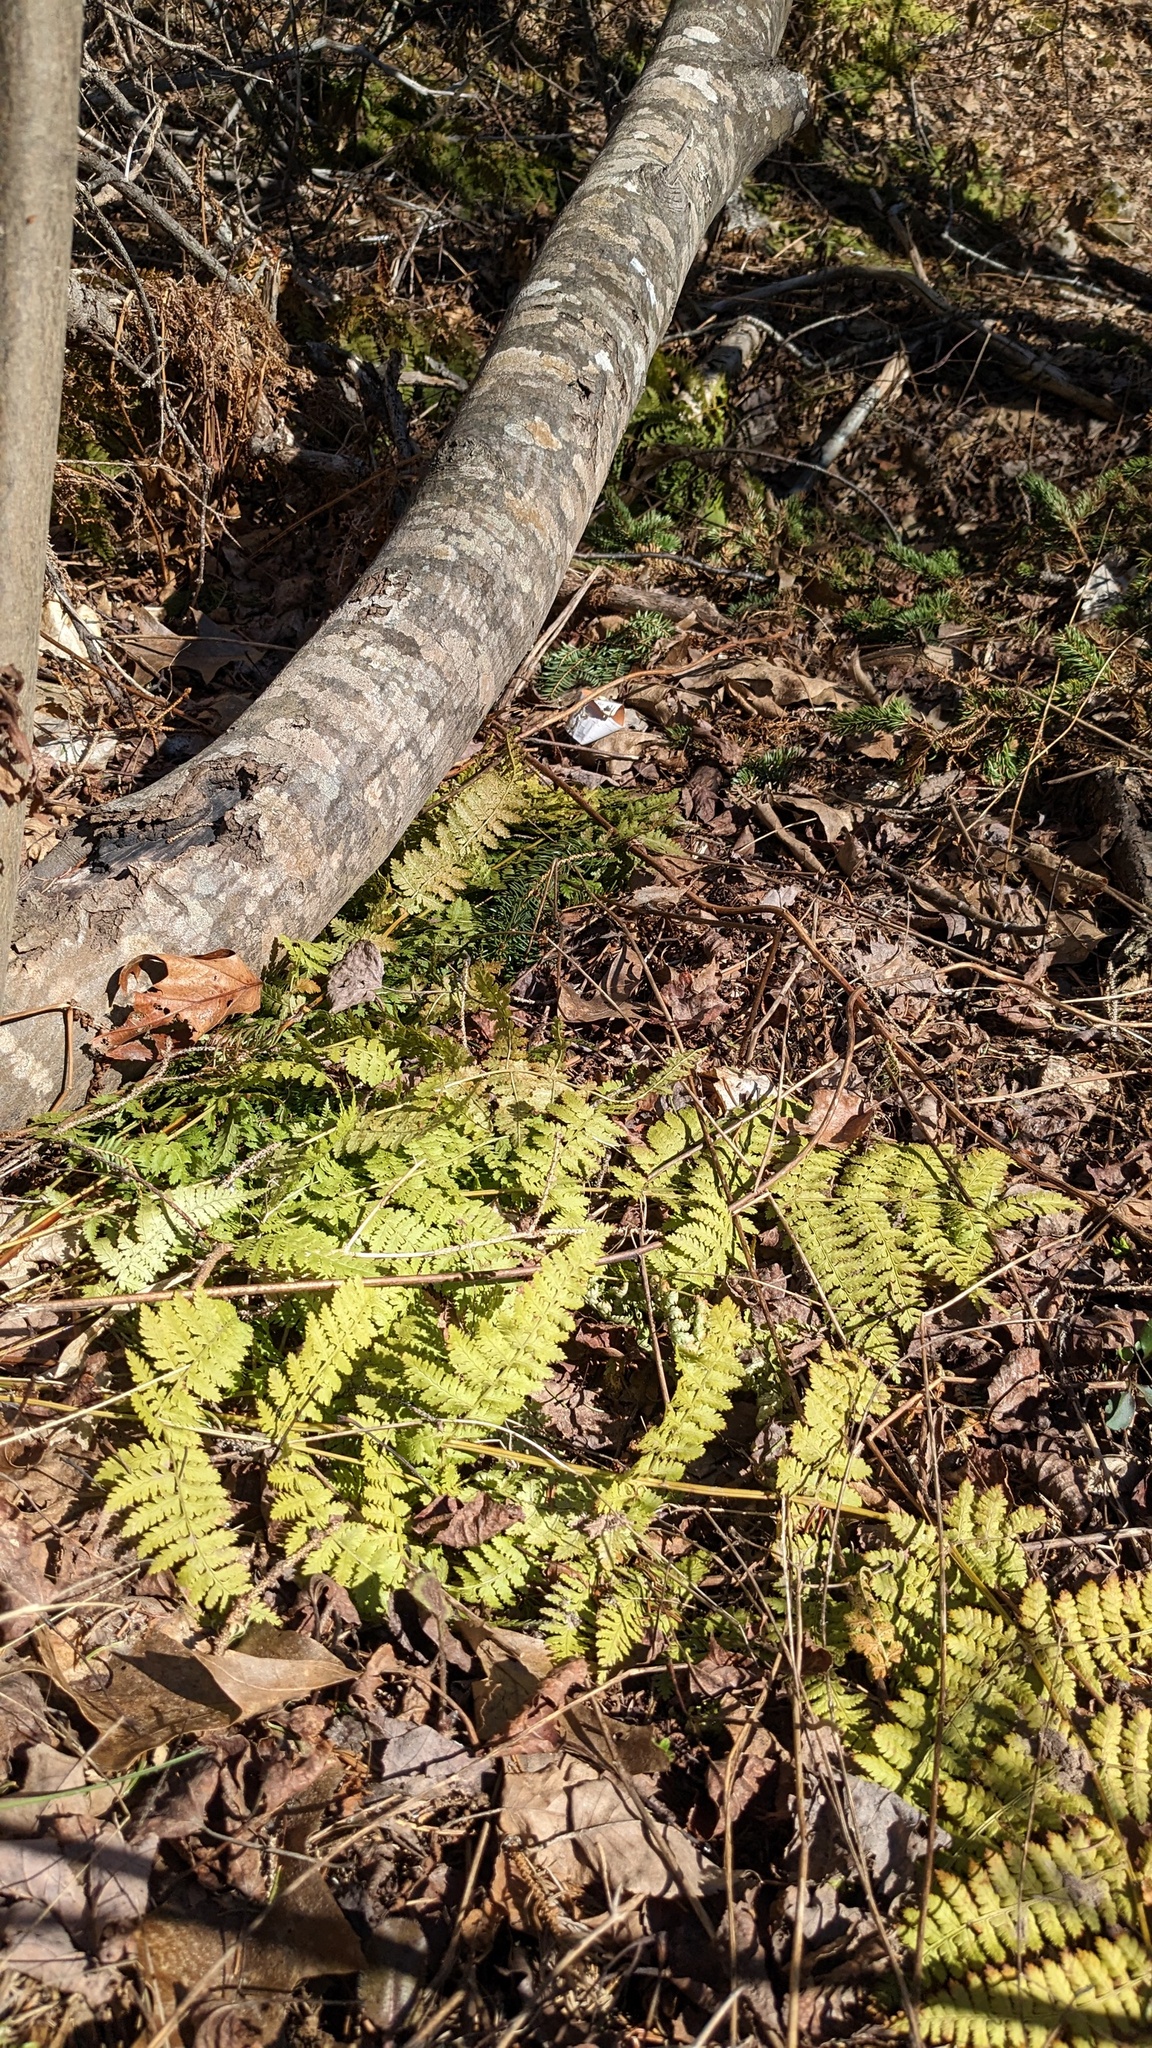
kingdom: Plantae
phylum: Tracheophyta
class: Polypodiopsida
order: Polypodiales
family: Dryopteridaceae
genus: Dryopteris
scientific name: Dryopteris intermedia
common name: Evergreen wood fern
